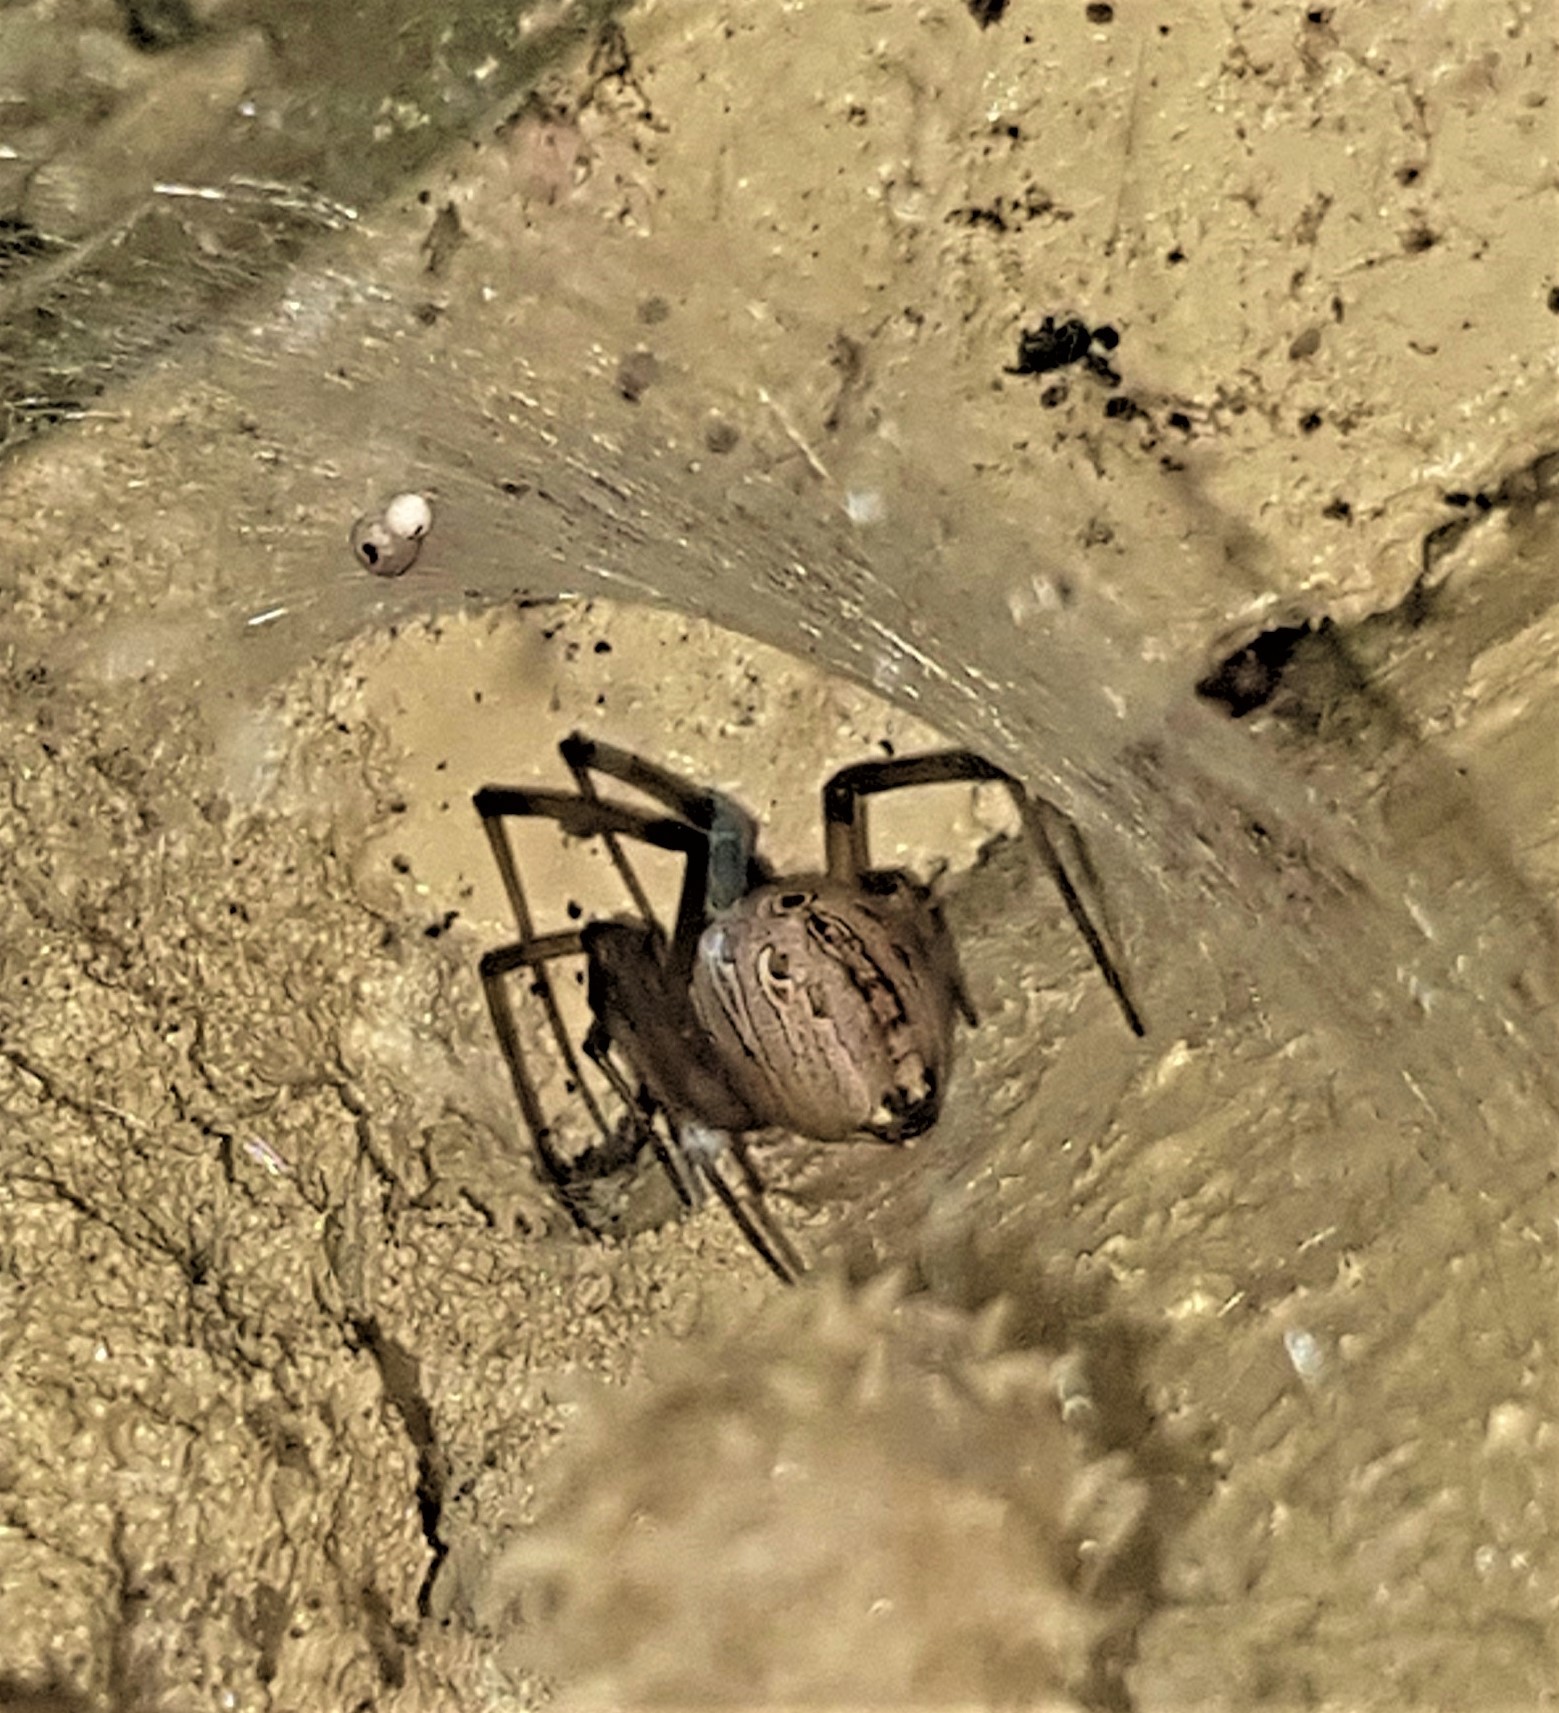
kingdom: Animalia
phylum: Arthropoda
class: Arachnida
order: Araneae
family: Theridiidae
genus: Latrodectus
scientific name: Latrodectus geometricus
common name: Brown widow spider
